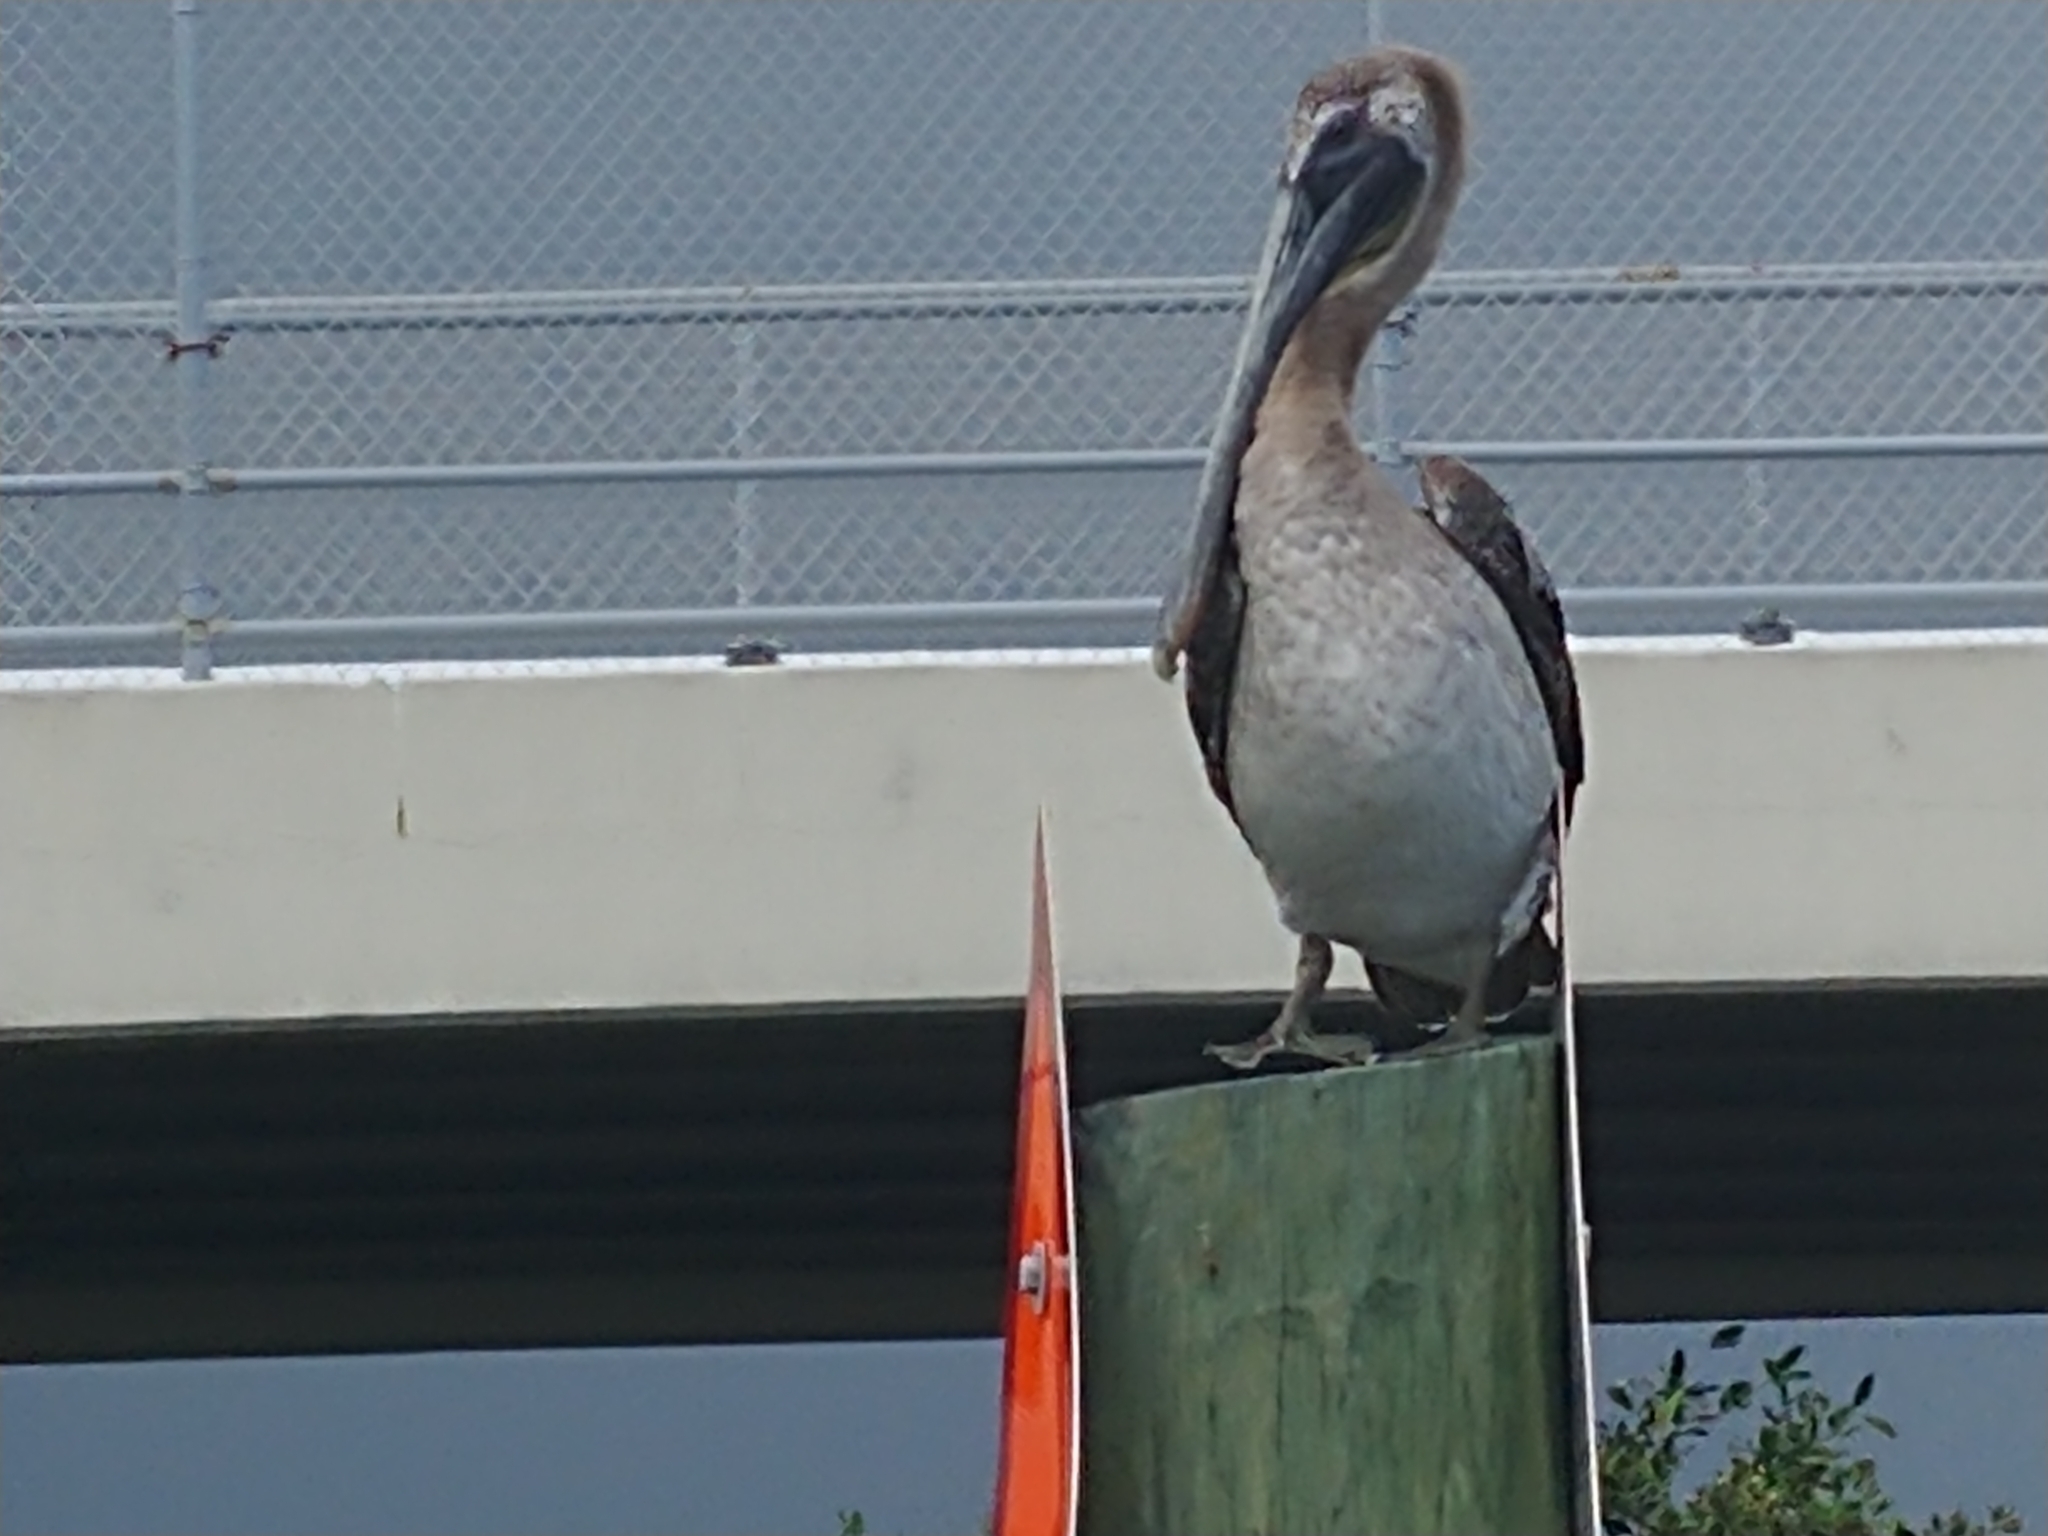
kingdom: Animalia
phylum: Chordata
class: Aves
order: Pelecaniformes
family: Pelecanidae
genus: Pelecanus
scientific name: Pelecanus occidentalis
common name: Brown pelican
